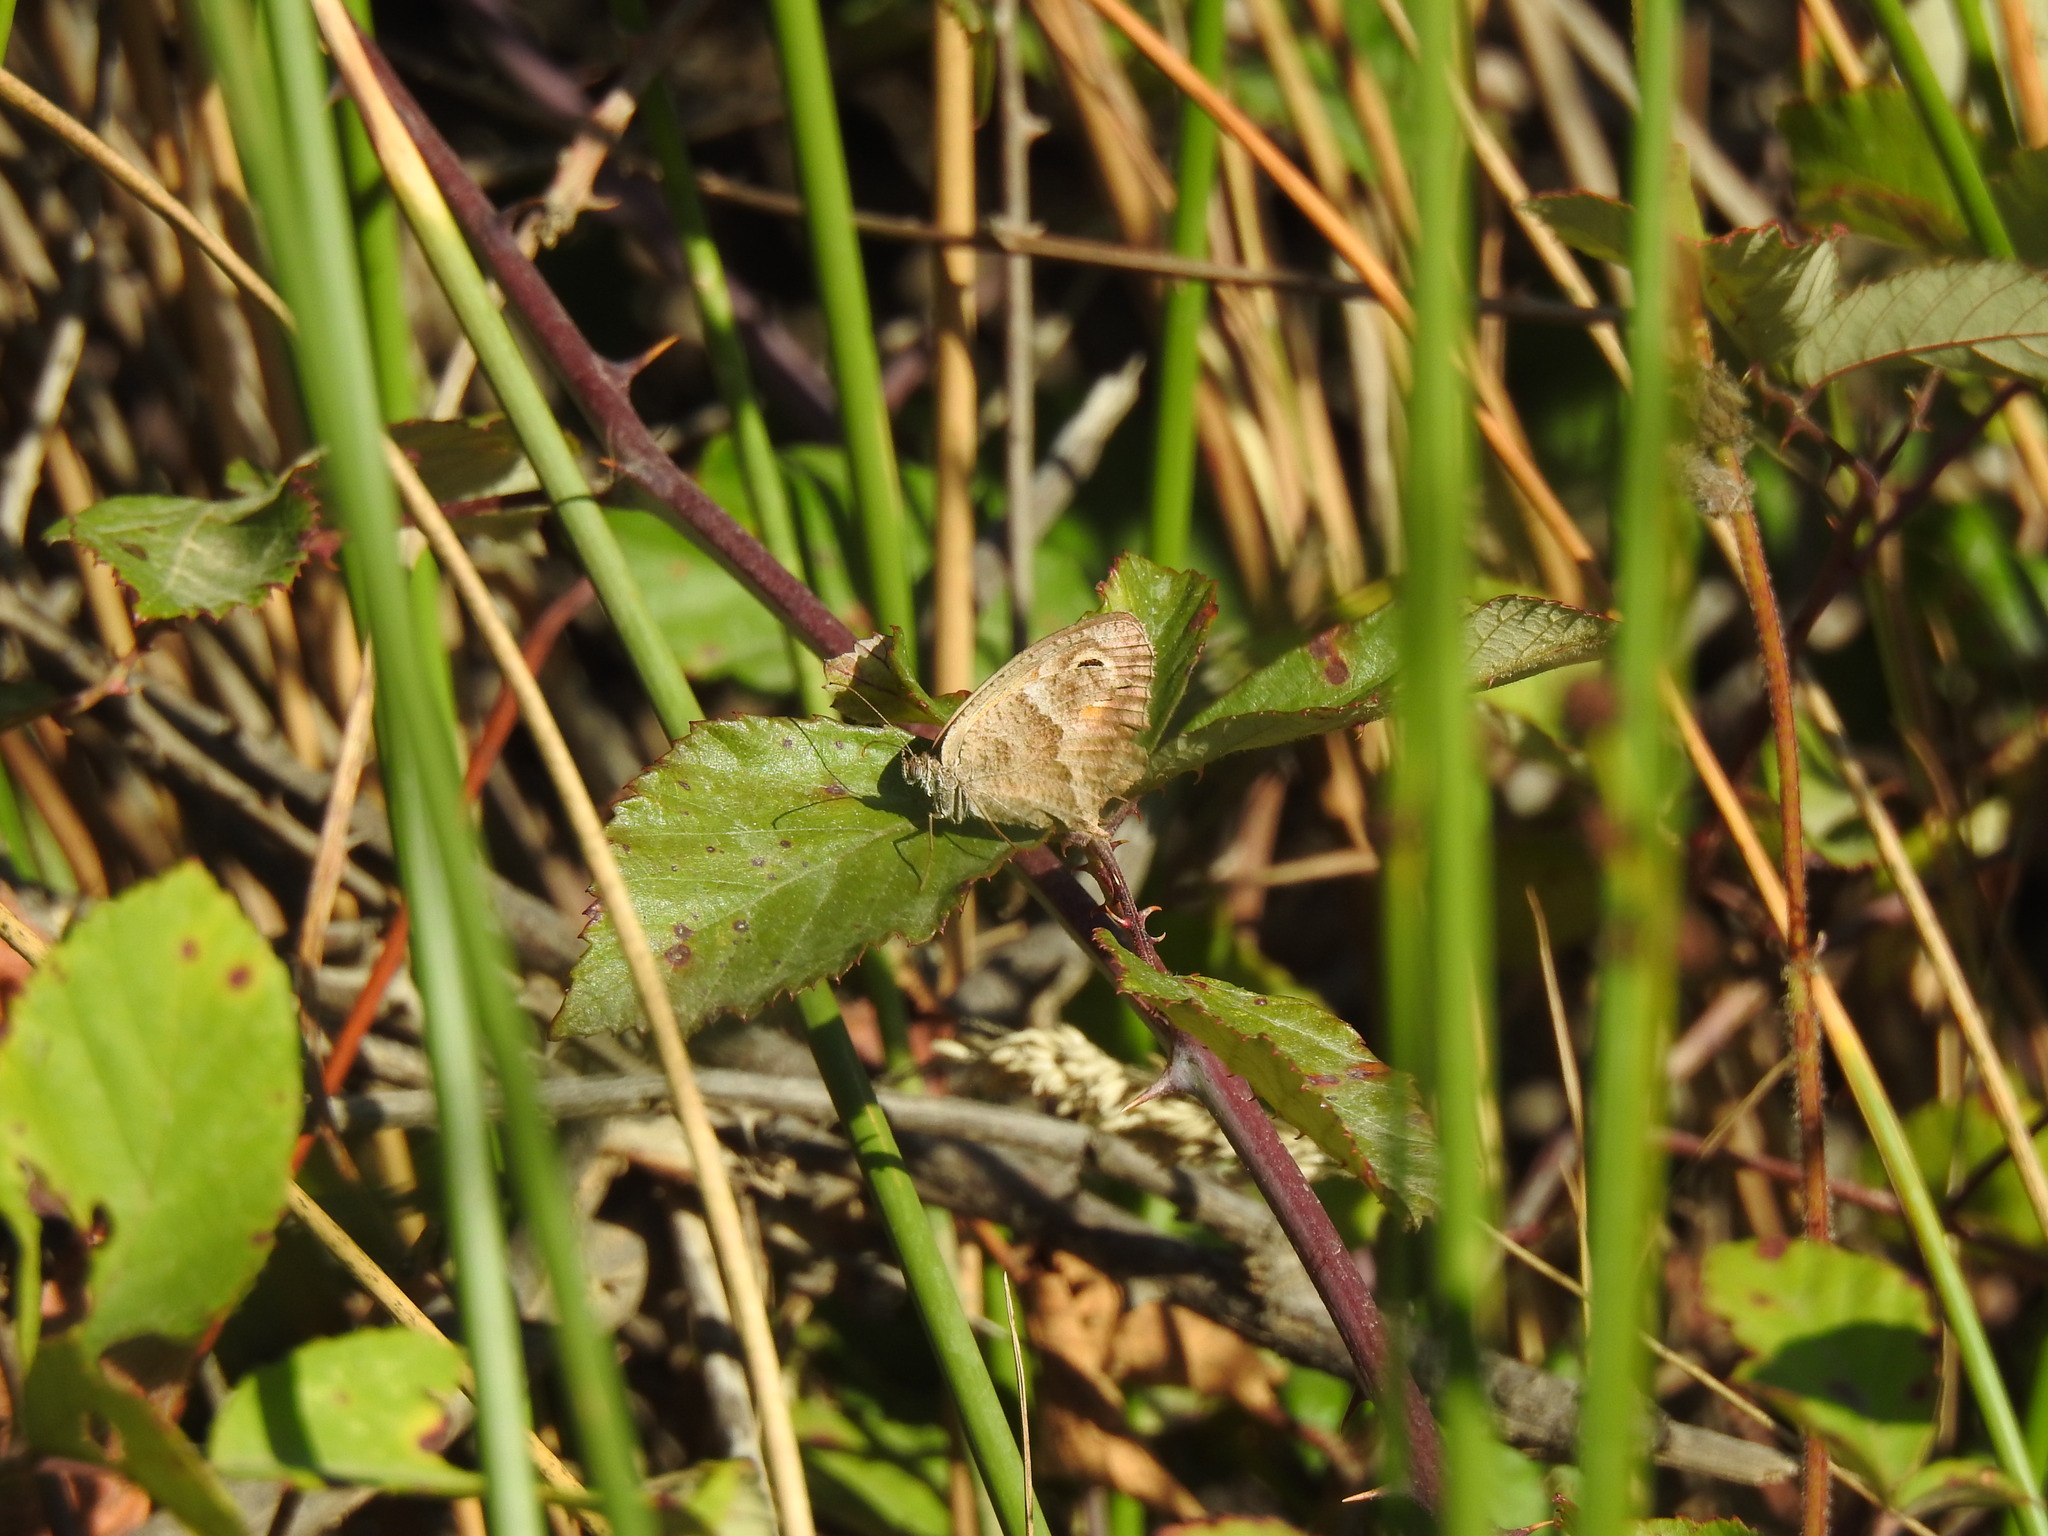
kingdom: Animalia
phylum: Arthropoda
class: Insecta
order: Lepidoptera
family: Nymphalidae
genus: Pyronia
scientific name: Pyronia cecilia
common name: Southern gatekeeper
